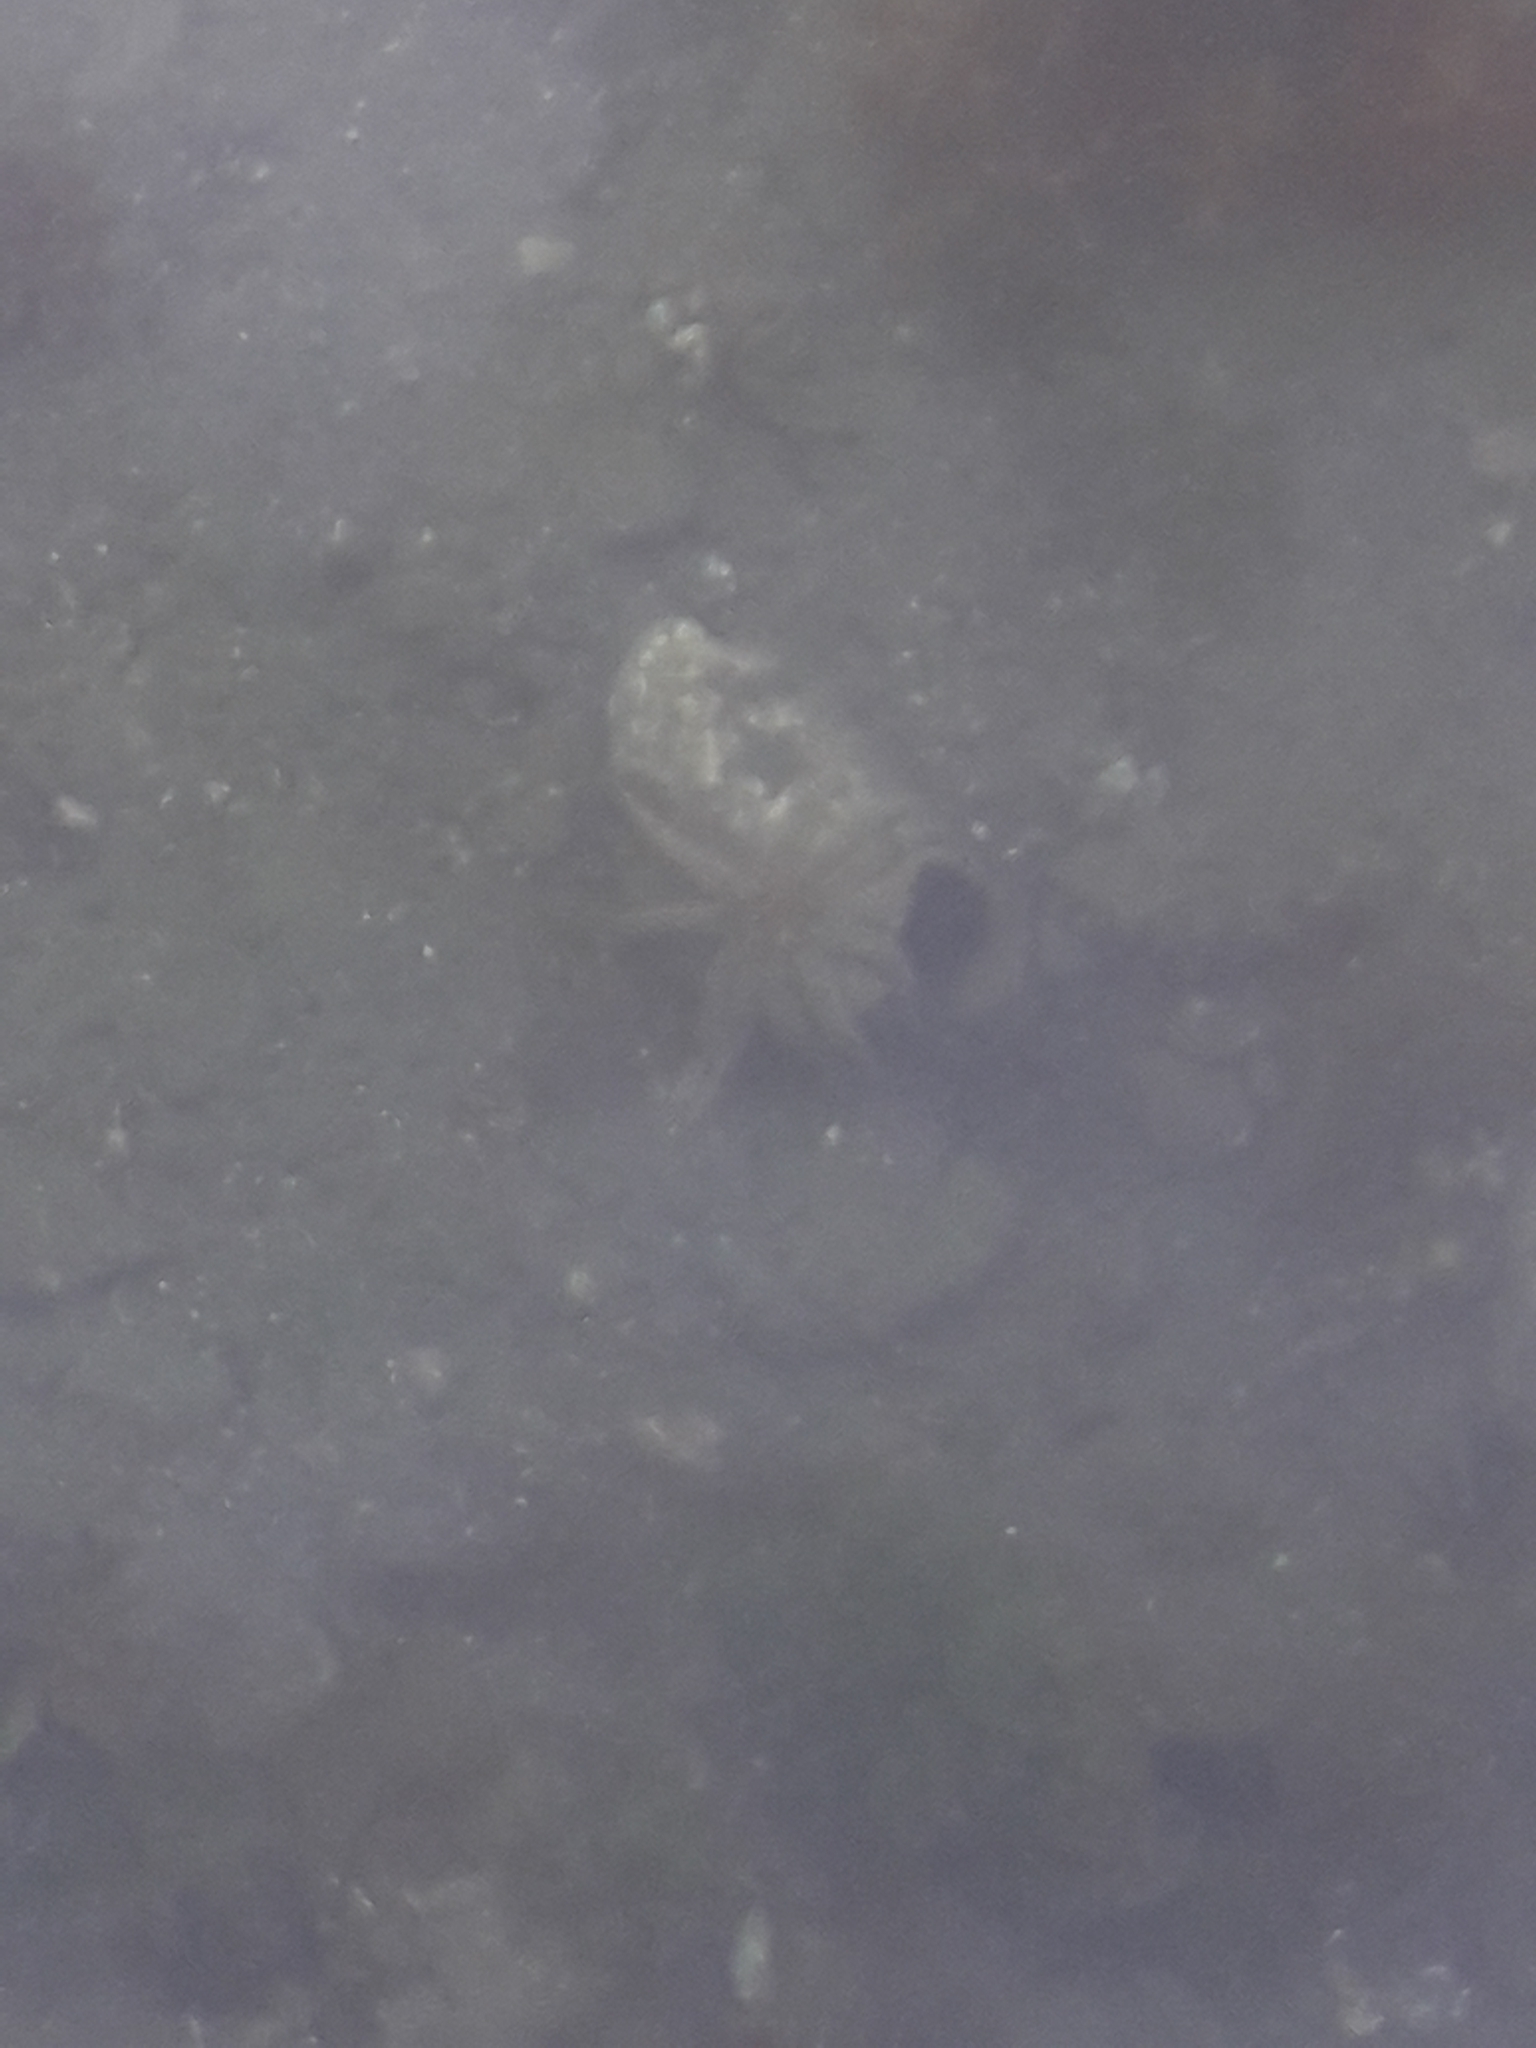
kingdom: Animalia
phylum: Echinodermata
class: Asteroidea
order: Forcipulatida
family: Asteriidae
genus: Coscinasterias
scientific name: Coscinasterias muricata
